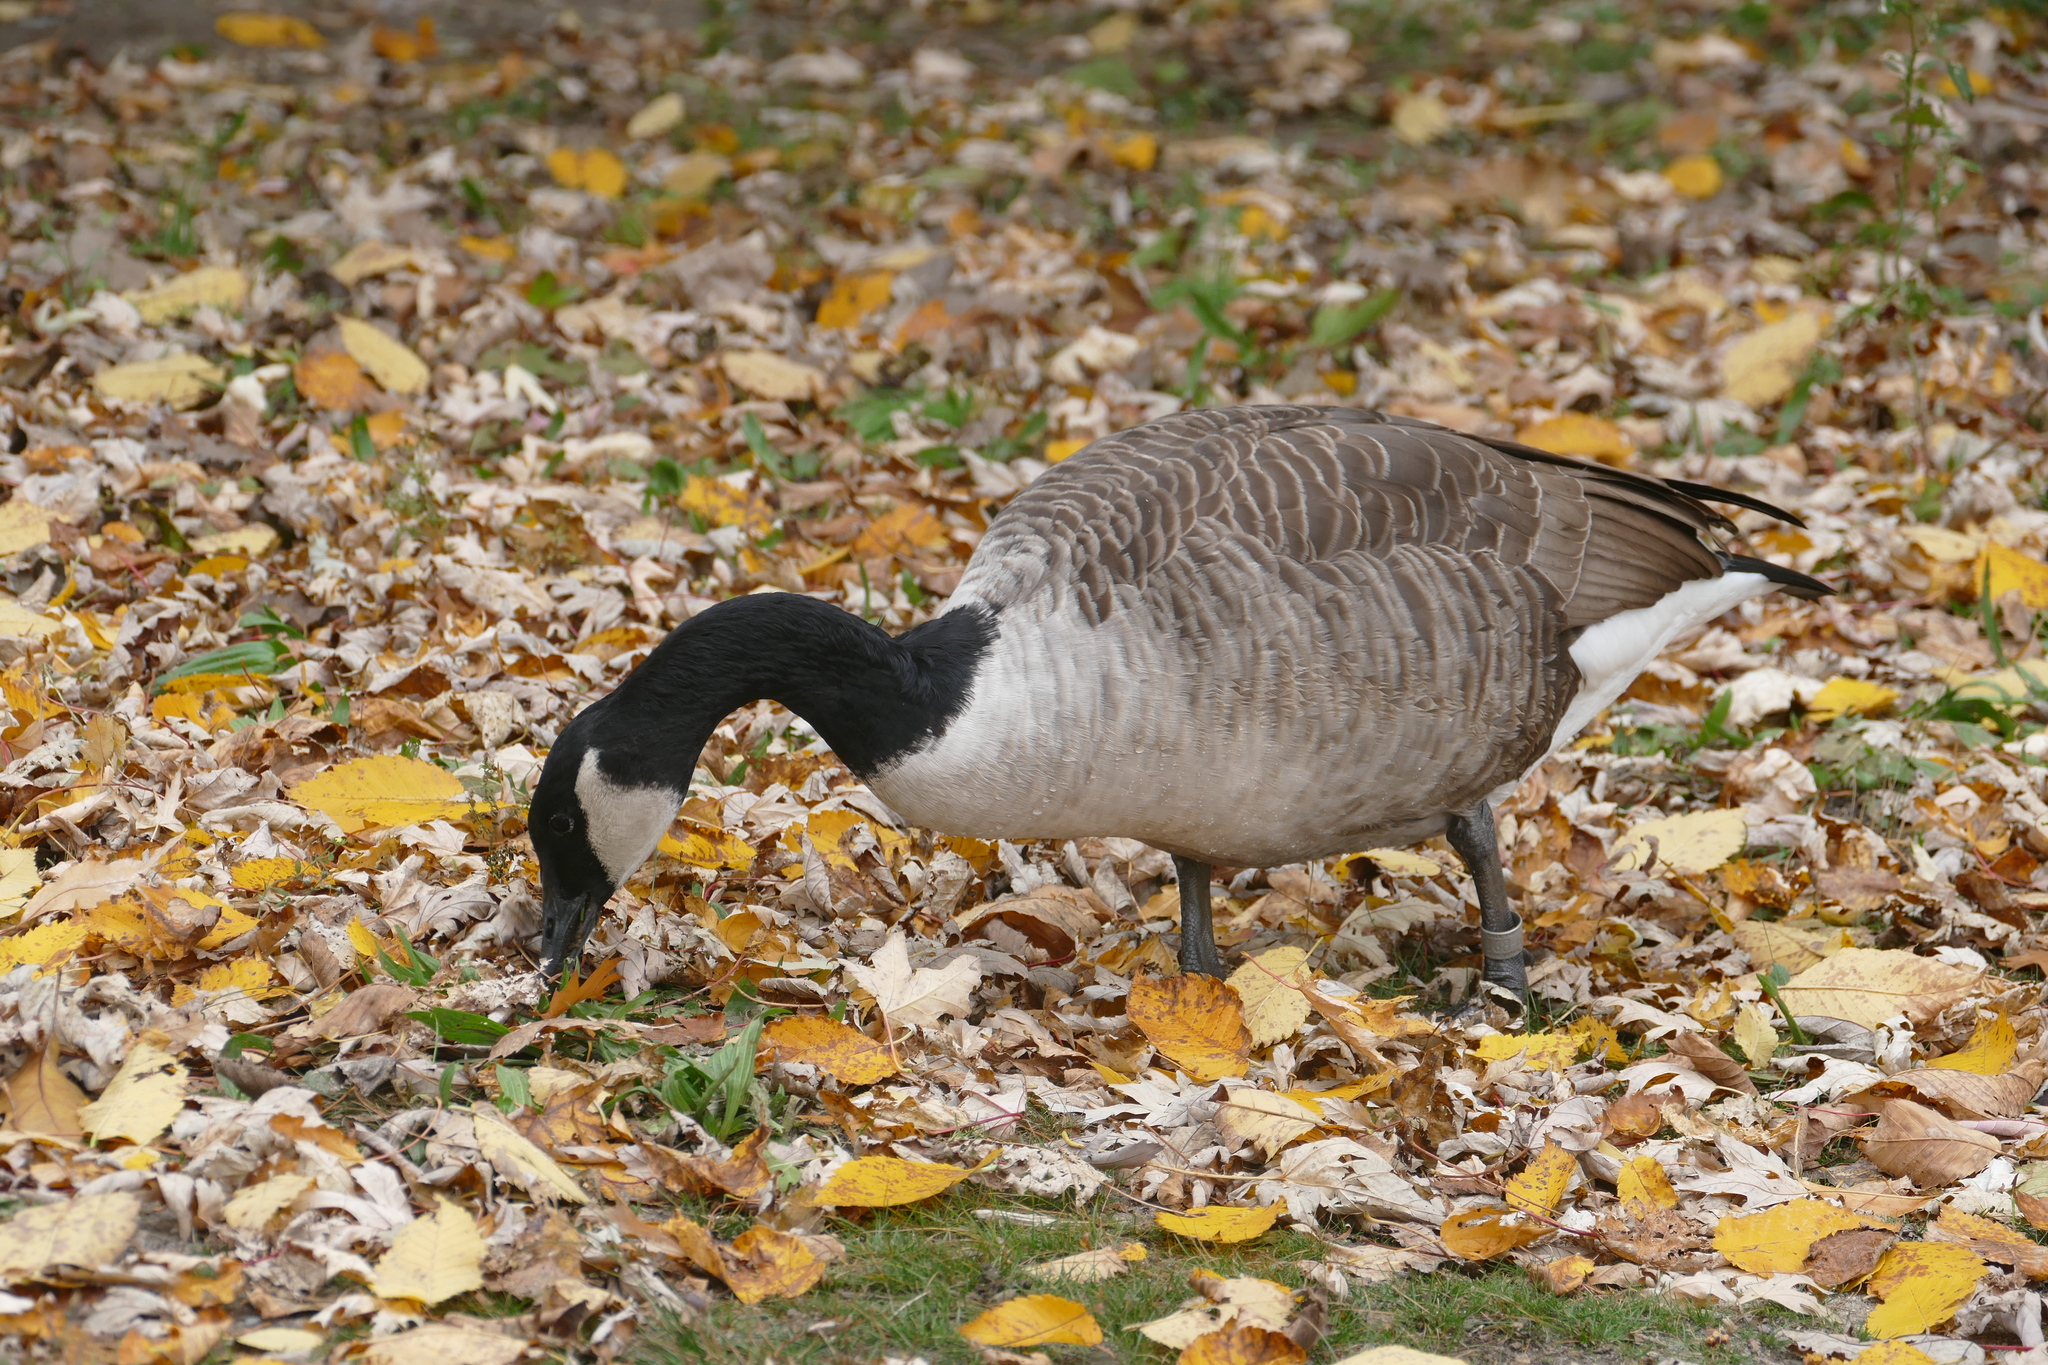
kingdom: Animalia
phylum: Chordata
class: Aves
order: Anseriformes
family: Anatidae
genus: Branta
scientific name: Branta canadensis
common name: Canada goose
